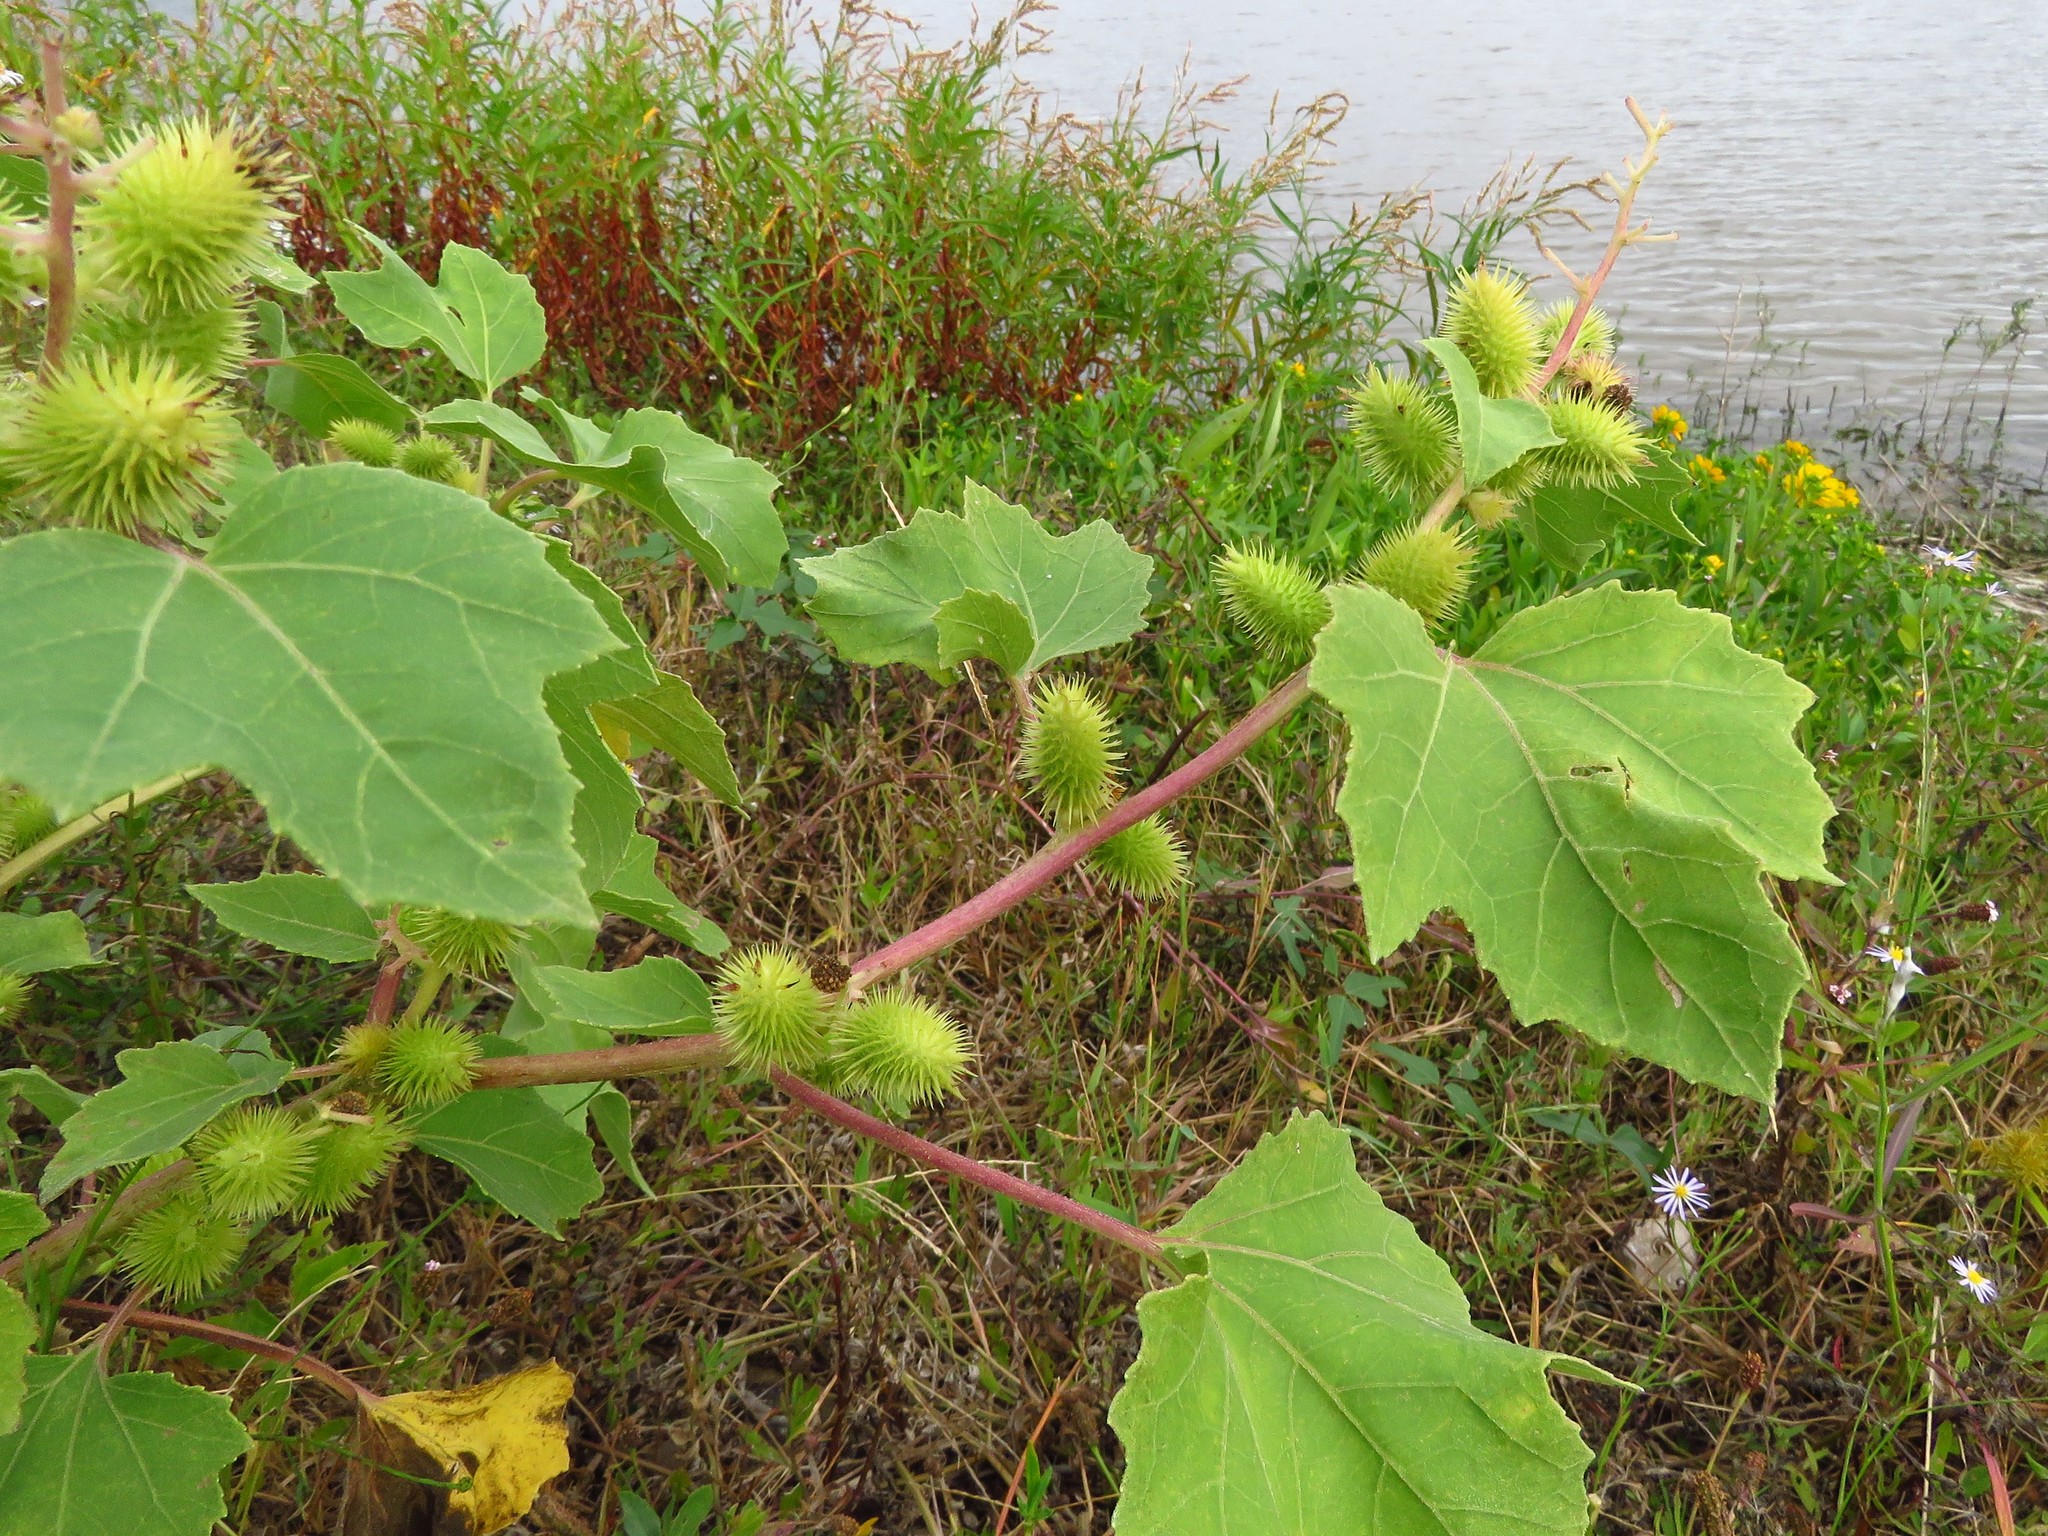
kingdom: Plantae
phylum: Tracheophyta
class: Magnoliopsida
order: Asterales
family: Asteraceae
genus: Xanthium
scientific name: Xanthium strumarium
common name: Rough cocklebur
